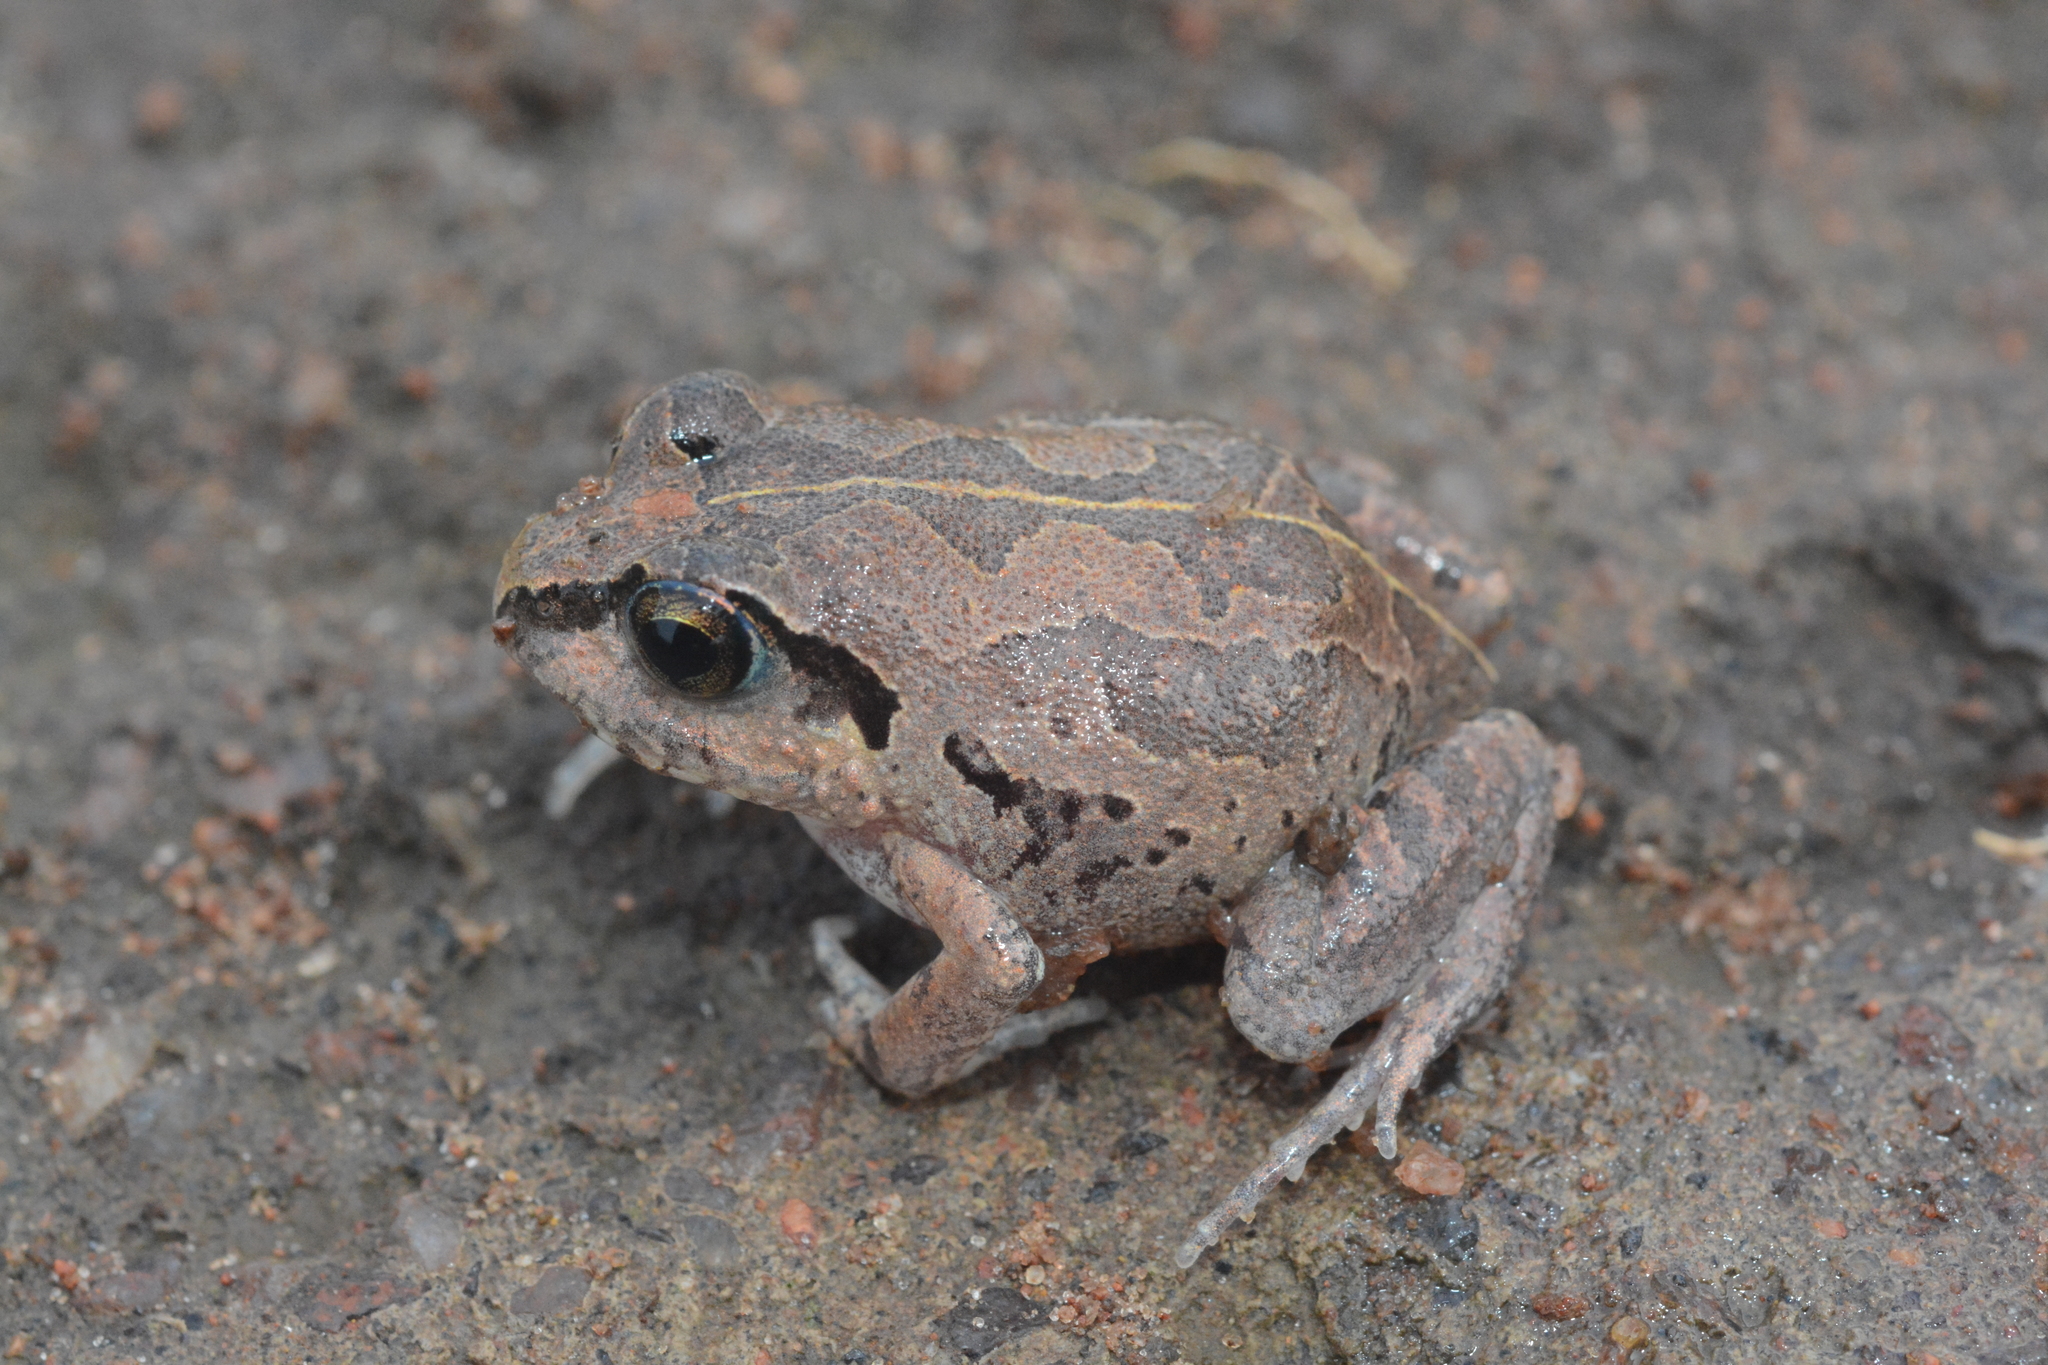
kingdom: Animalia
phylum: Chordata
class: Amphibia
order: Anura
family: Arthroleptidae
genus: Arthroleptis
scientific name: Arthroleptis stenodactylus
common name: Dune squeaker
